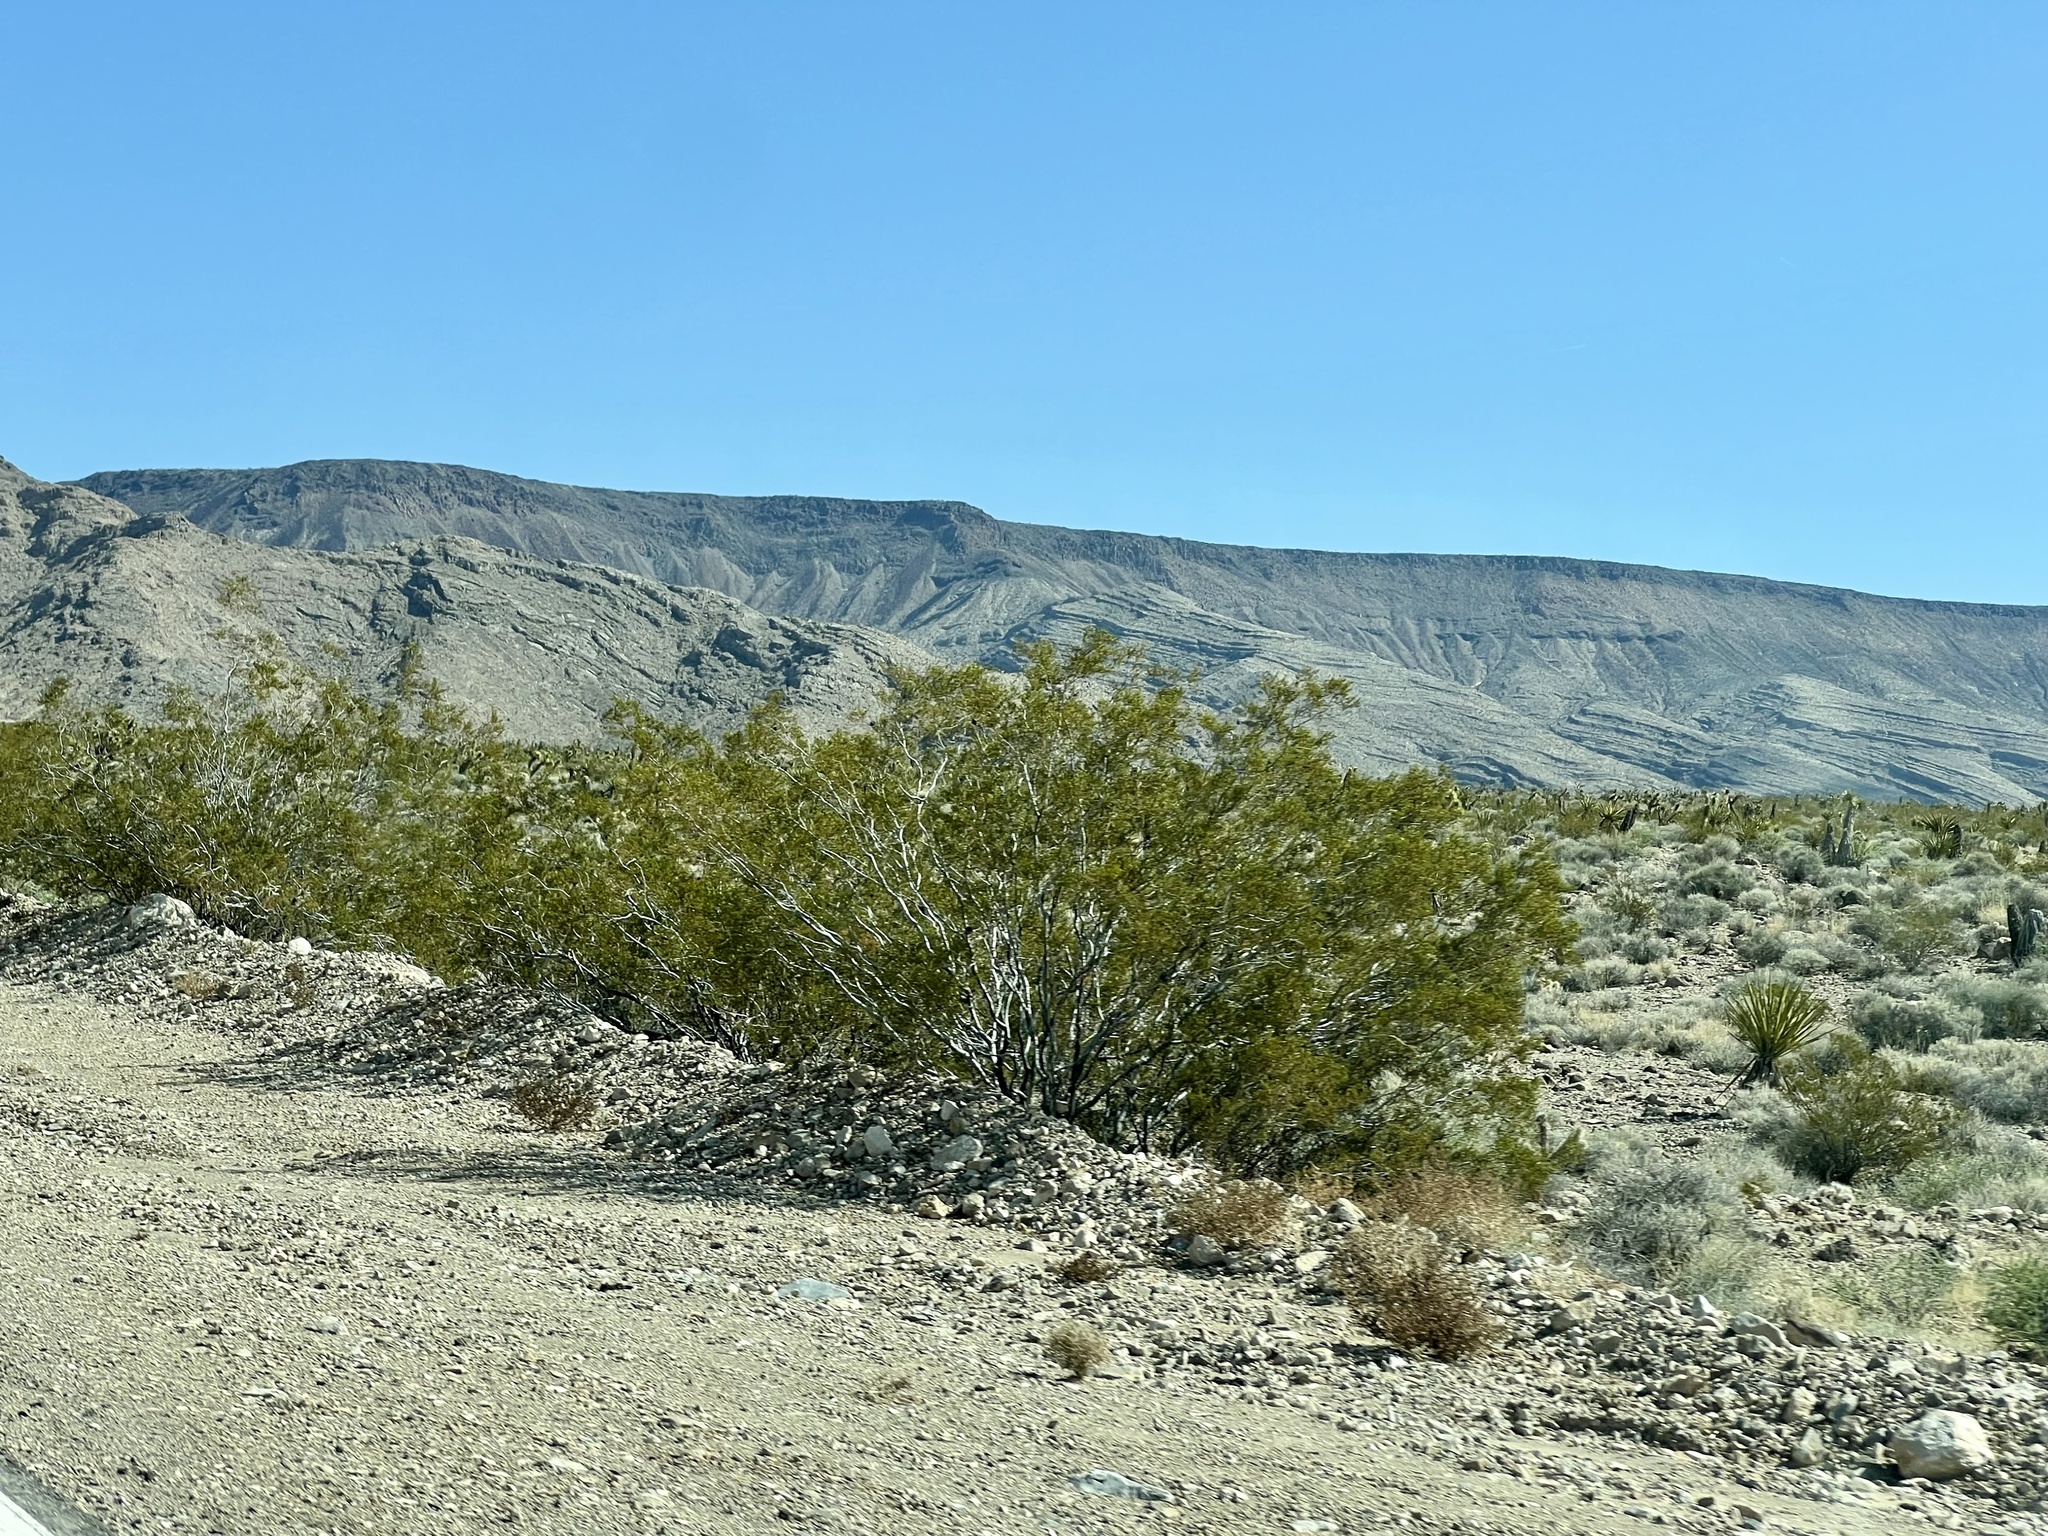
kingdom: Plantae
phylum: Tracheophyta
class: Magnoliopsida
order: Zygophyllales
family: Zygophyllaceae
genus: Larrea
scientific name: Larrea tridentata
